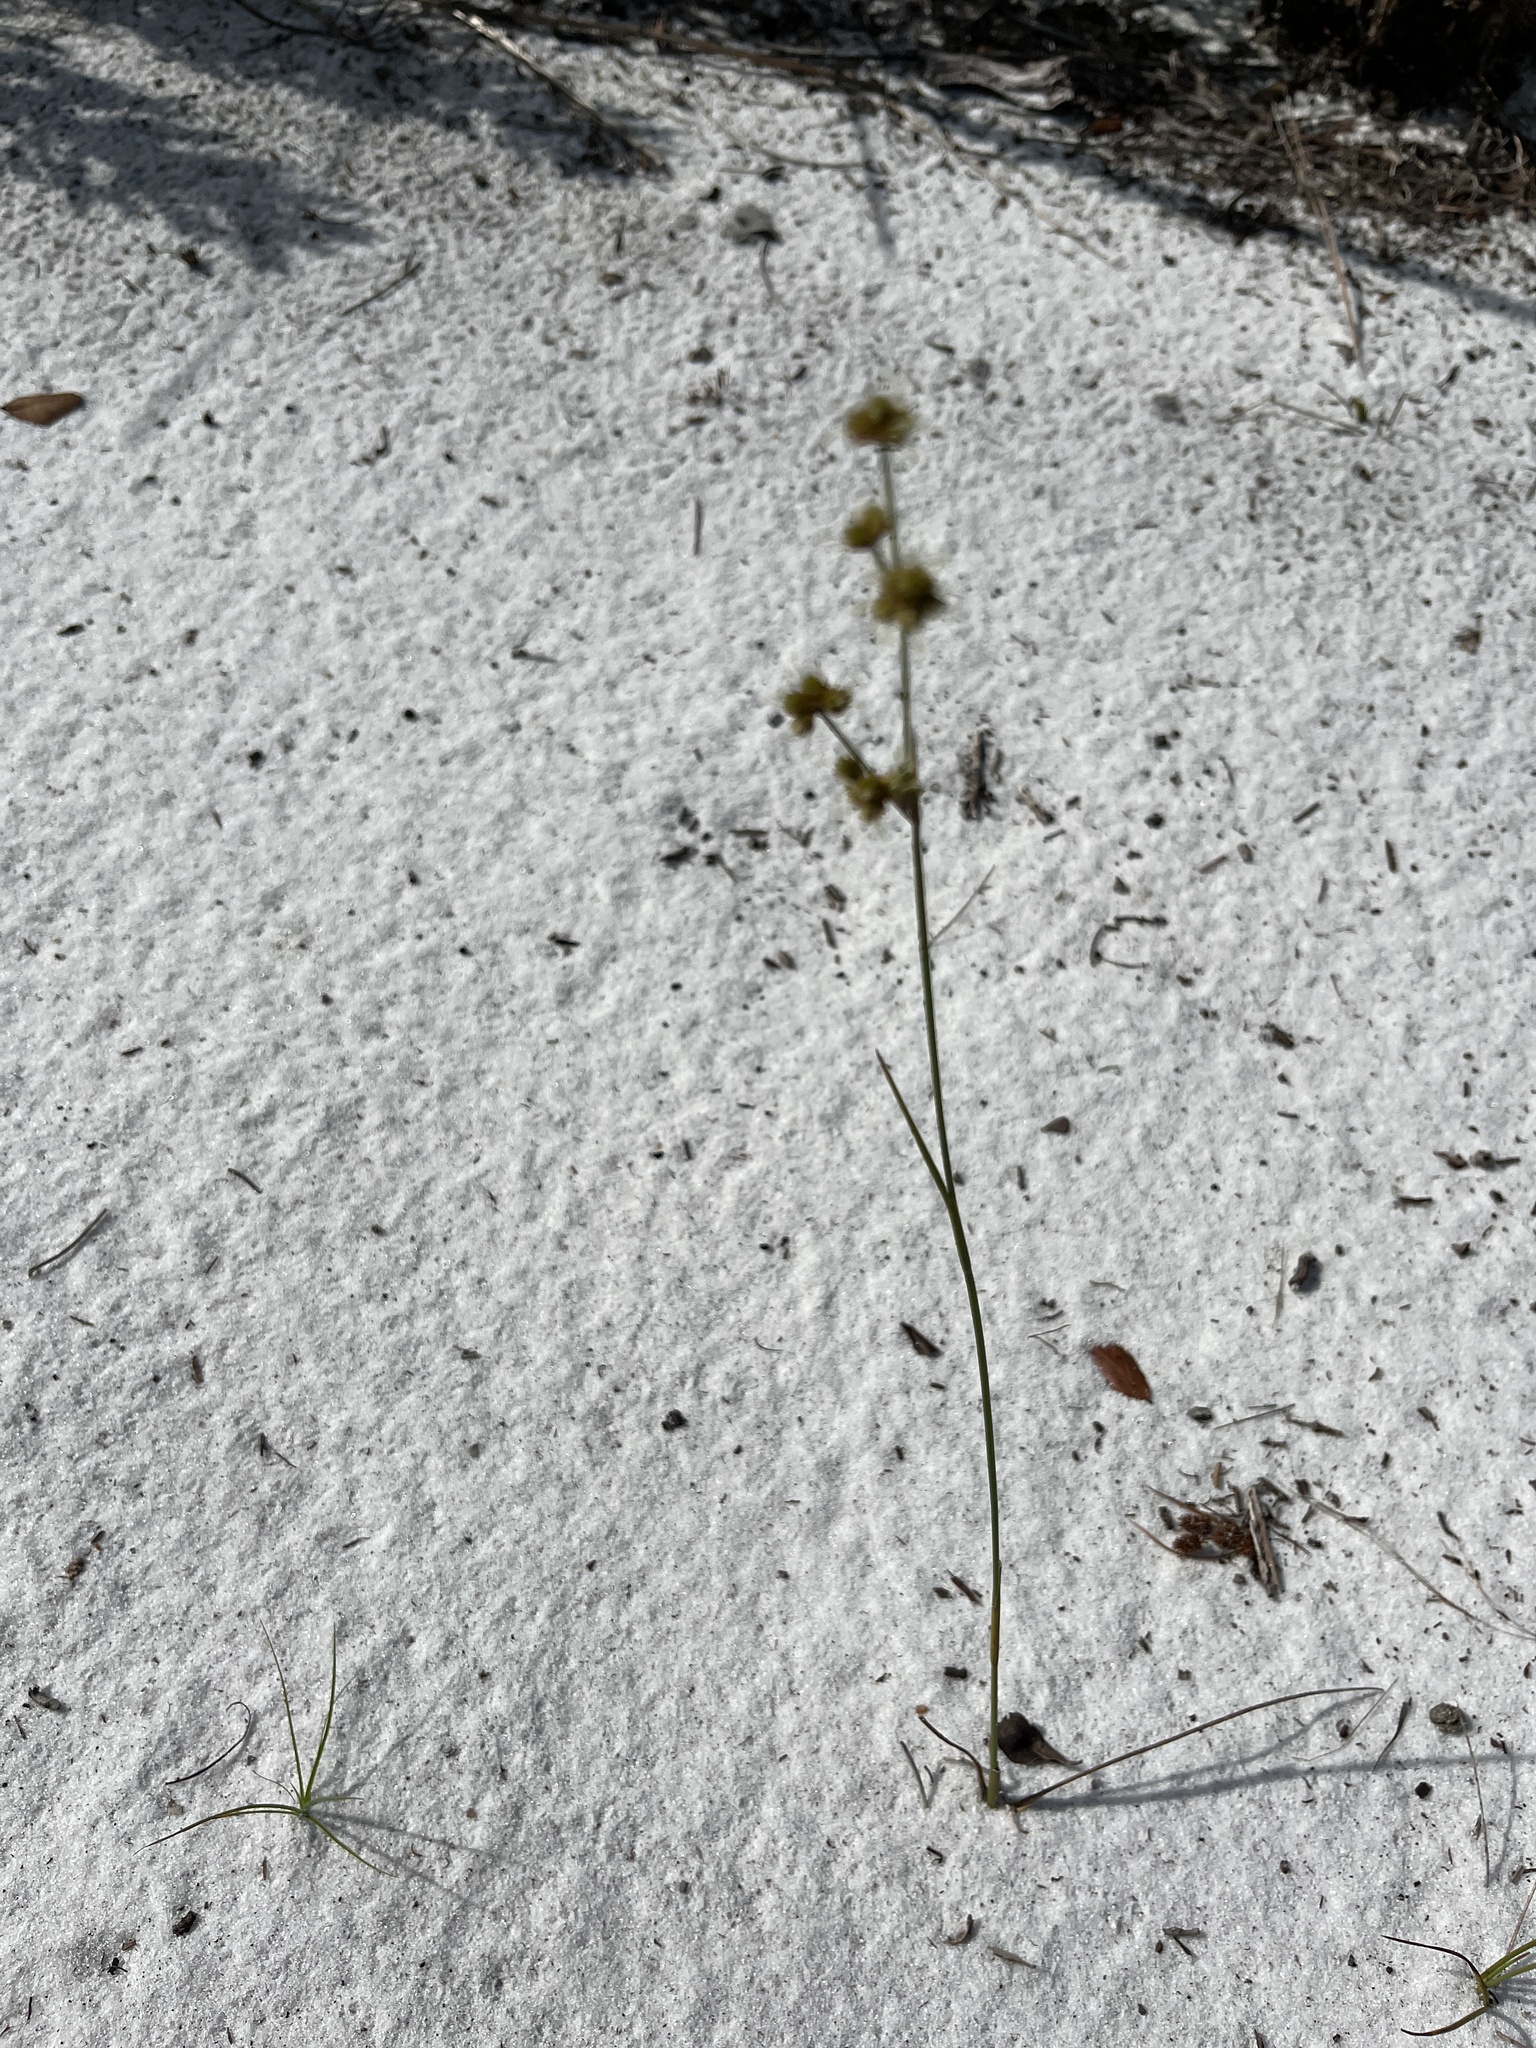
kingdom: Plantae
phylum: Tracheophyta
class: Liliopsida
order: Poales
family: Juncaceae
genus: Juncus
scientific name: Juncus scirpoides
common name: Needlepod rush
